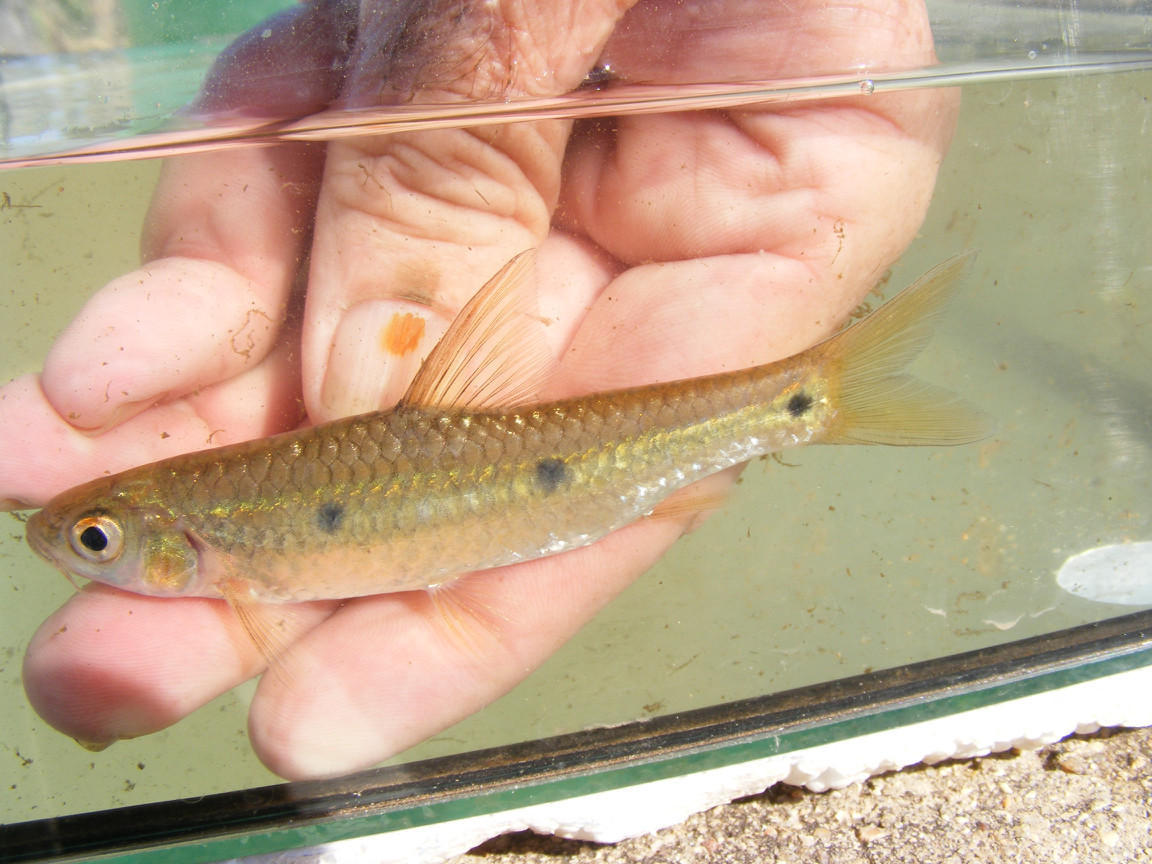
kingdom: Animalia
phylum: Chordata
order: Cypriniformes
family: Cyprinidae
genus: Enteromius
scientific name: Enteromius trimaculatus
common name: Threespot barb
